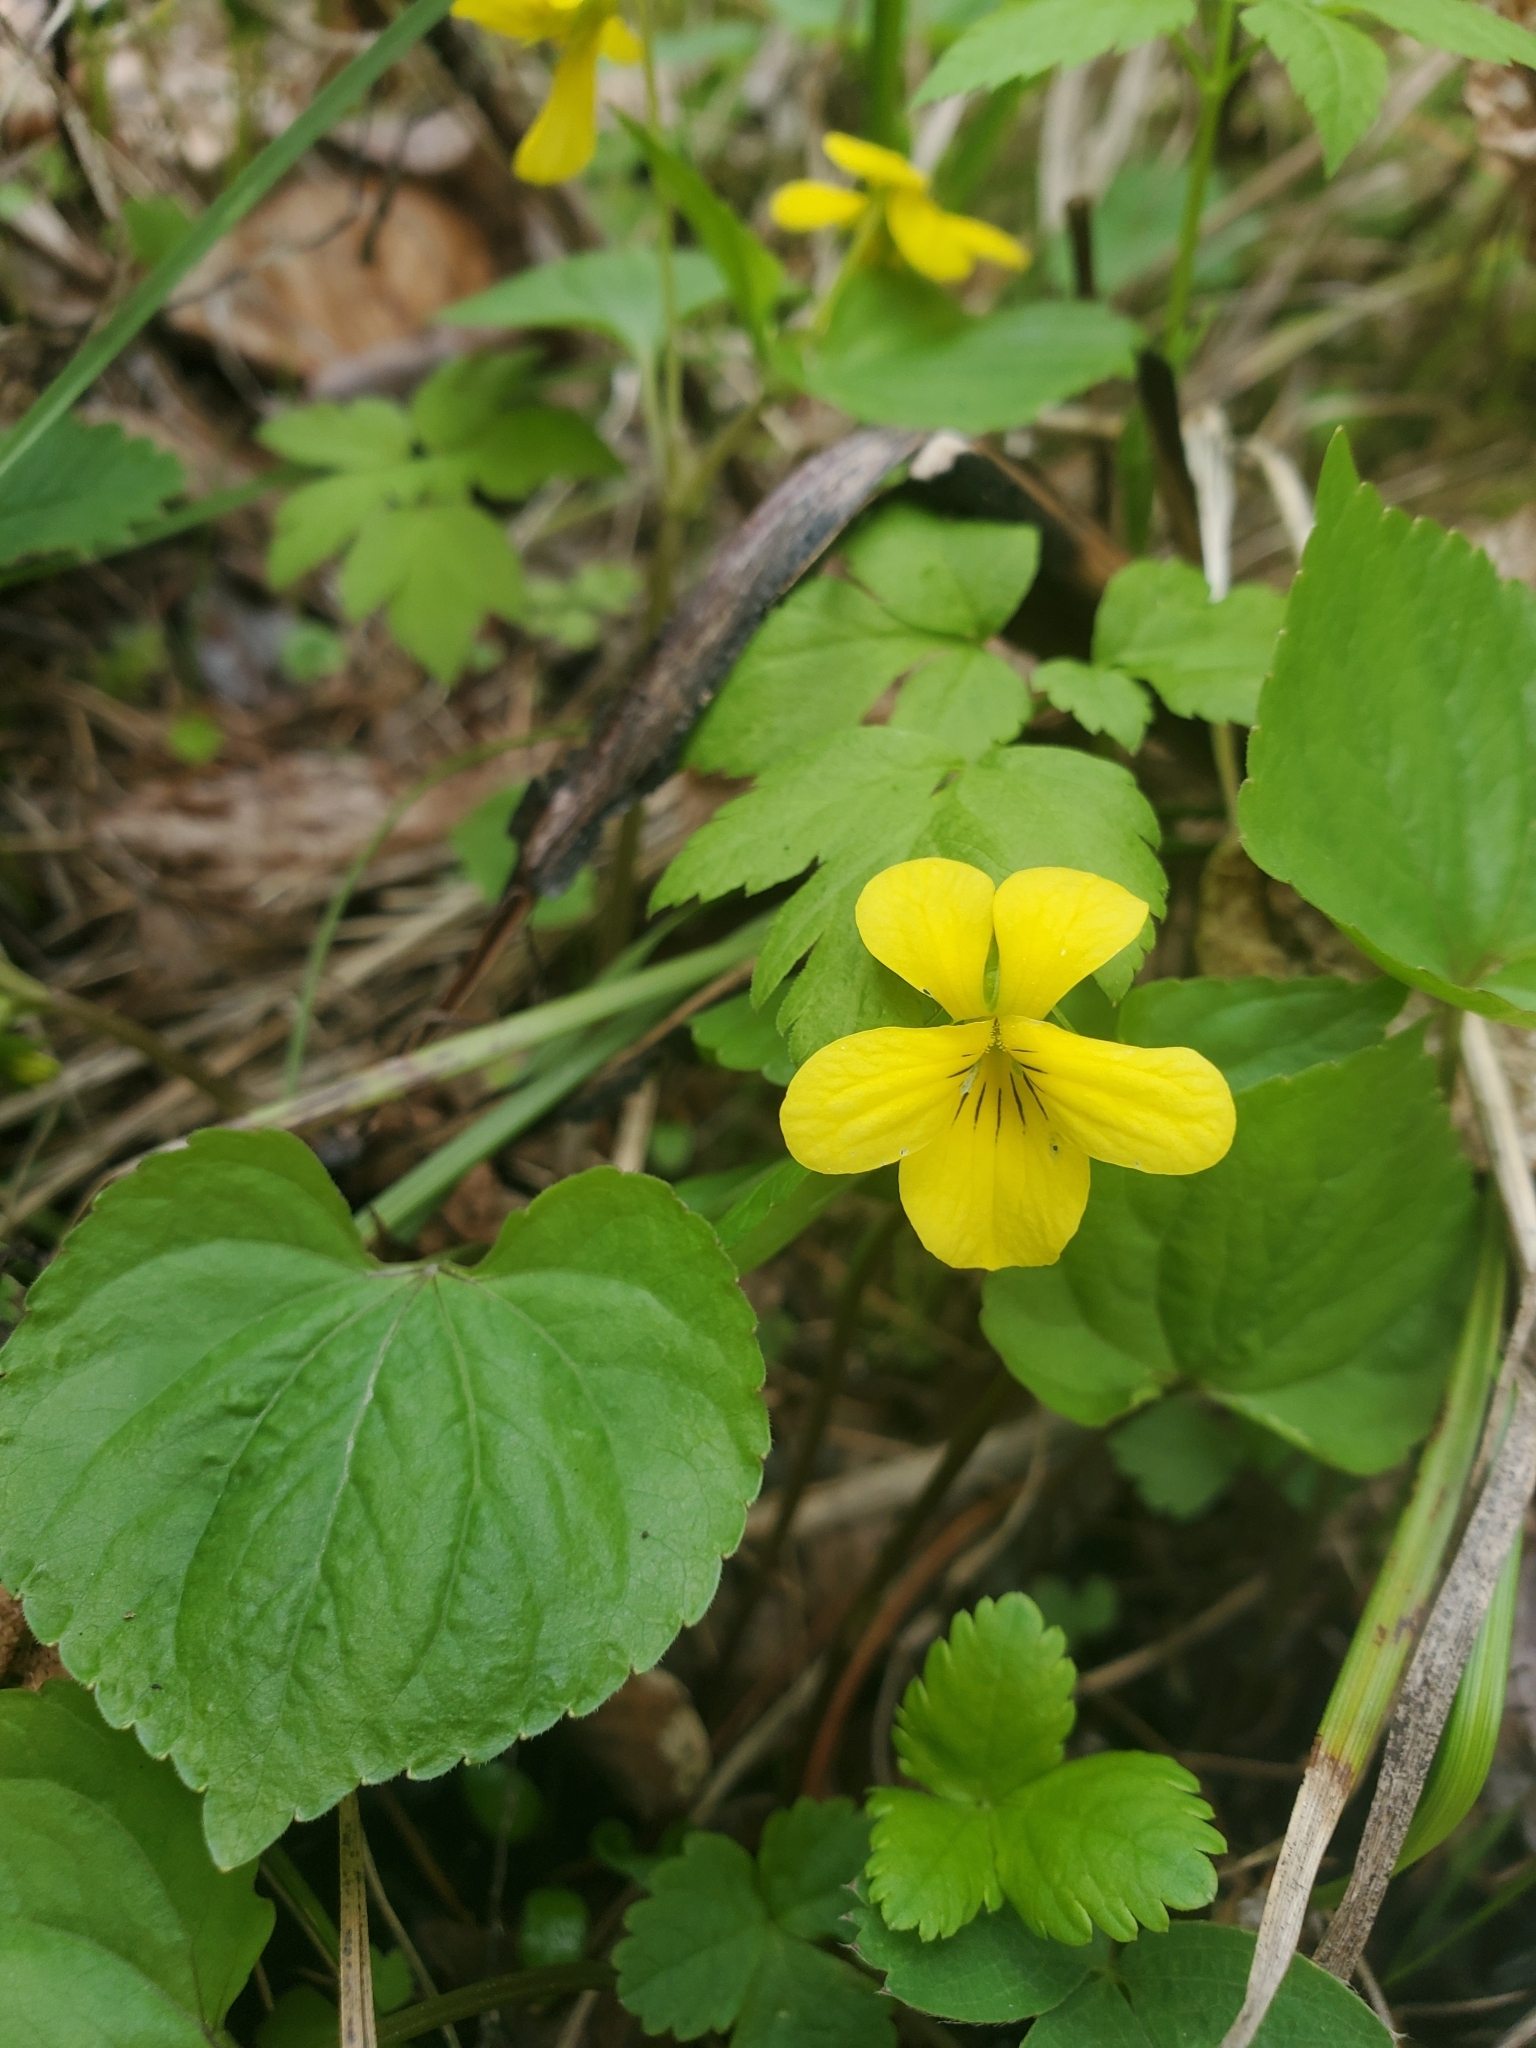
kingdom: Plantae
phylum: Tracheophyta
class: Magnoliopsida
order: Malpighiales
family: Violaceae
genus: Viola
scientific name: Viola glabella
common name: Stream violet
